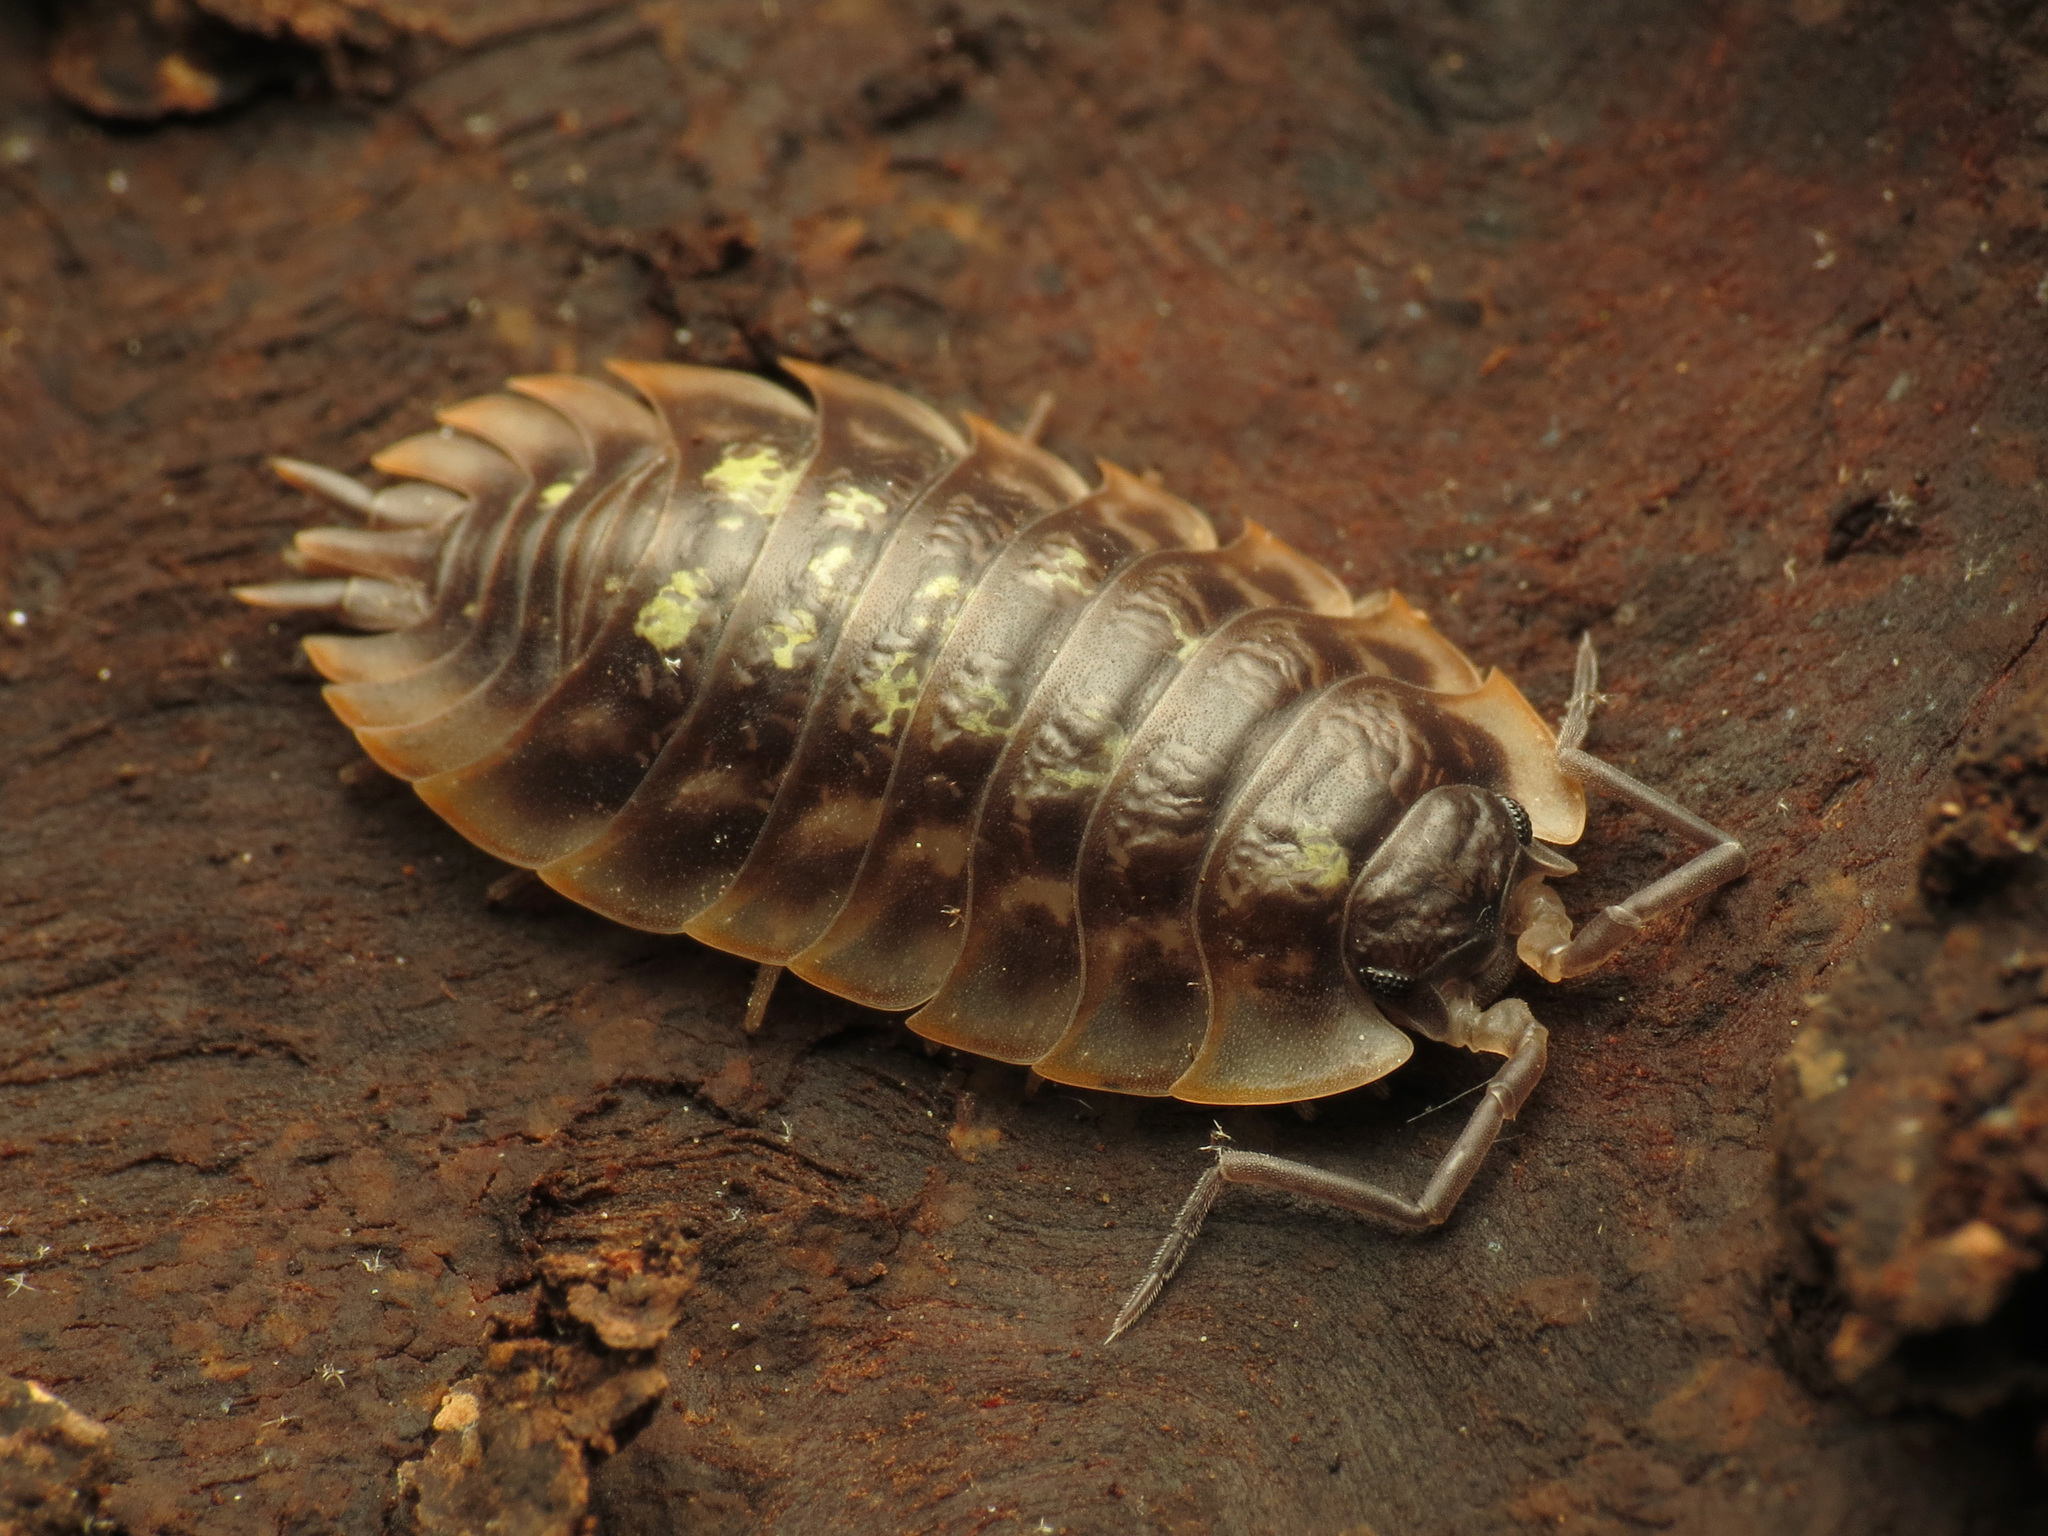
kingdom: Animalia
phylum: Arthropoda
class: Malacostraca
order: Isopoda
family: Oniscidae
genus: Oniscus
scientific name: Oniscus asellus
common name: Common shiny woodlouse
